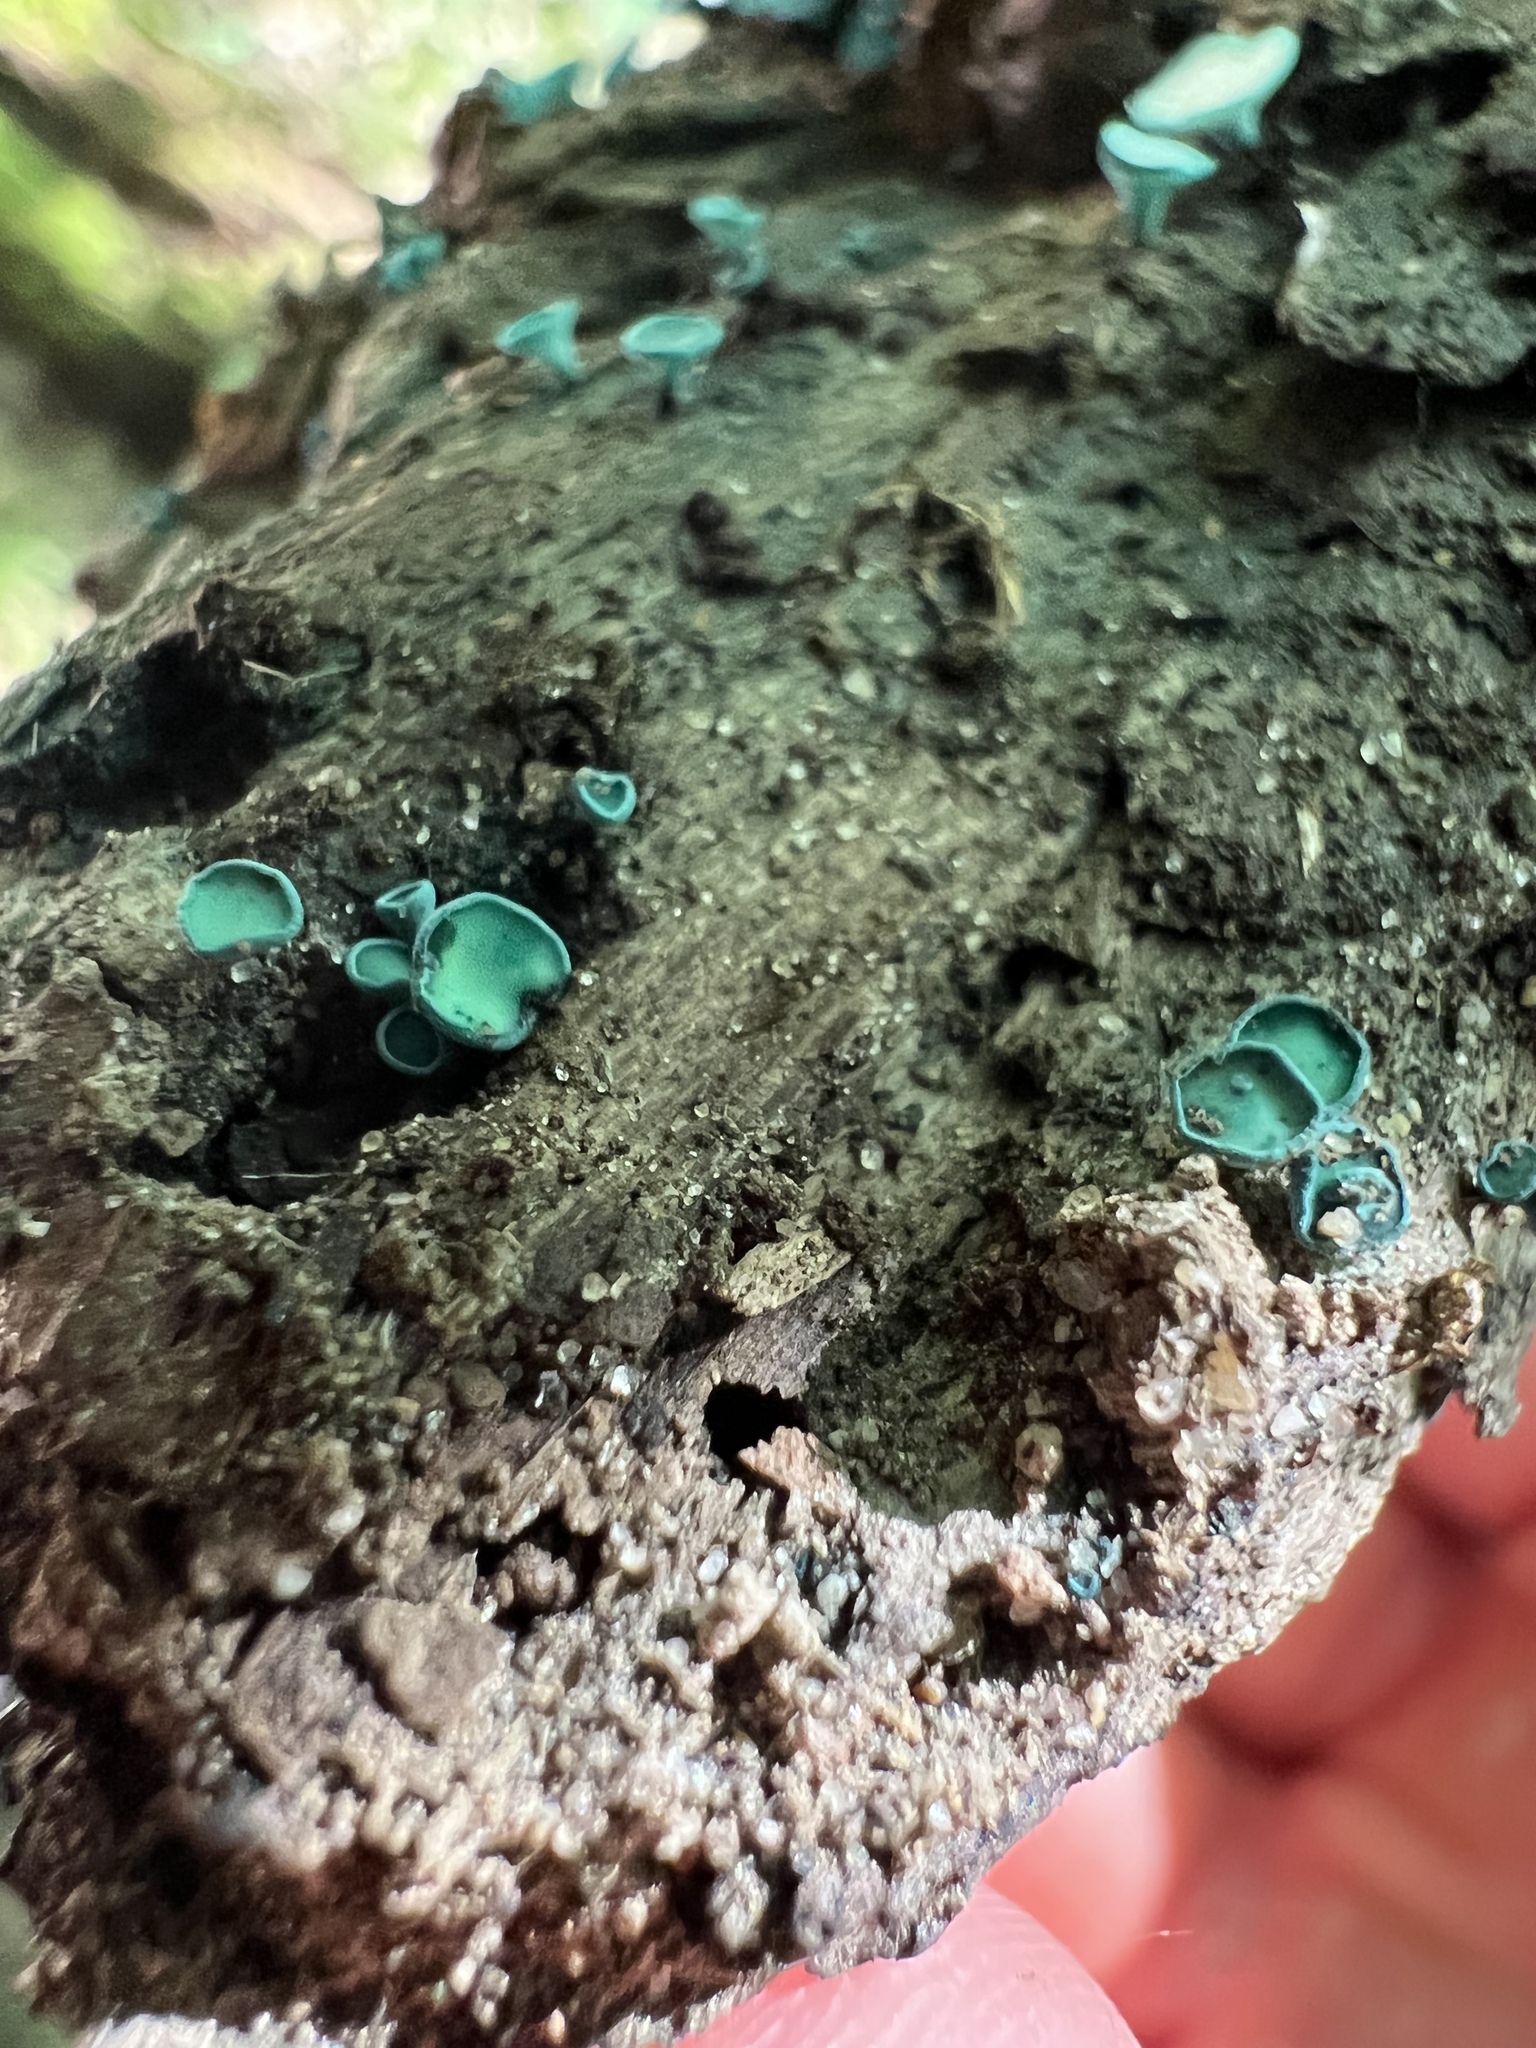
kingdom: Fungi
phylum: Ascomycota
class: Leotiomycetes
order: Helotiales
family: Chlorociboriaceae
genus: Chlorociboria
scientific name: Chlorociboria aeruginascens
